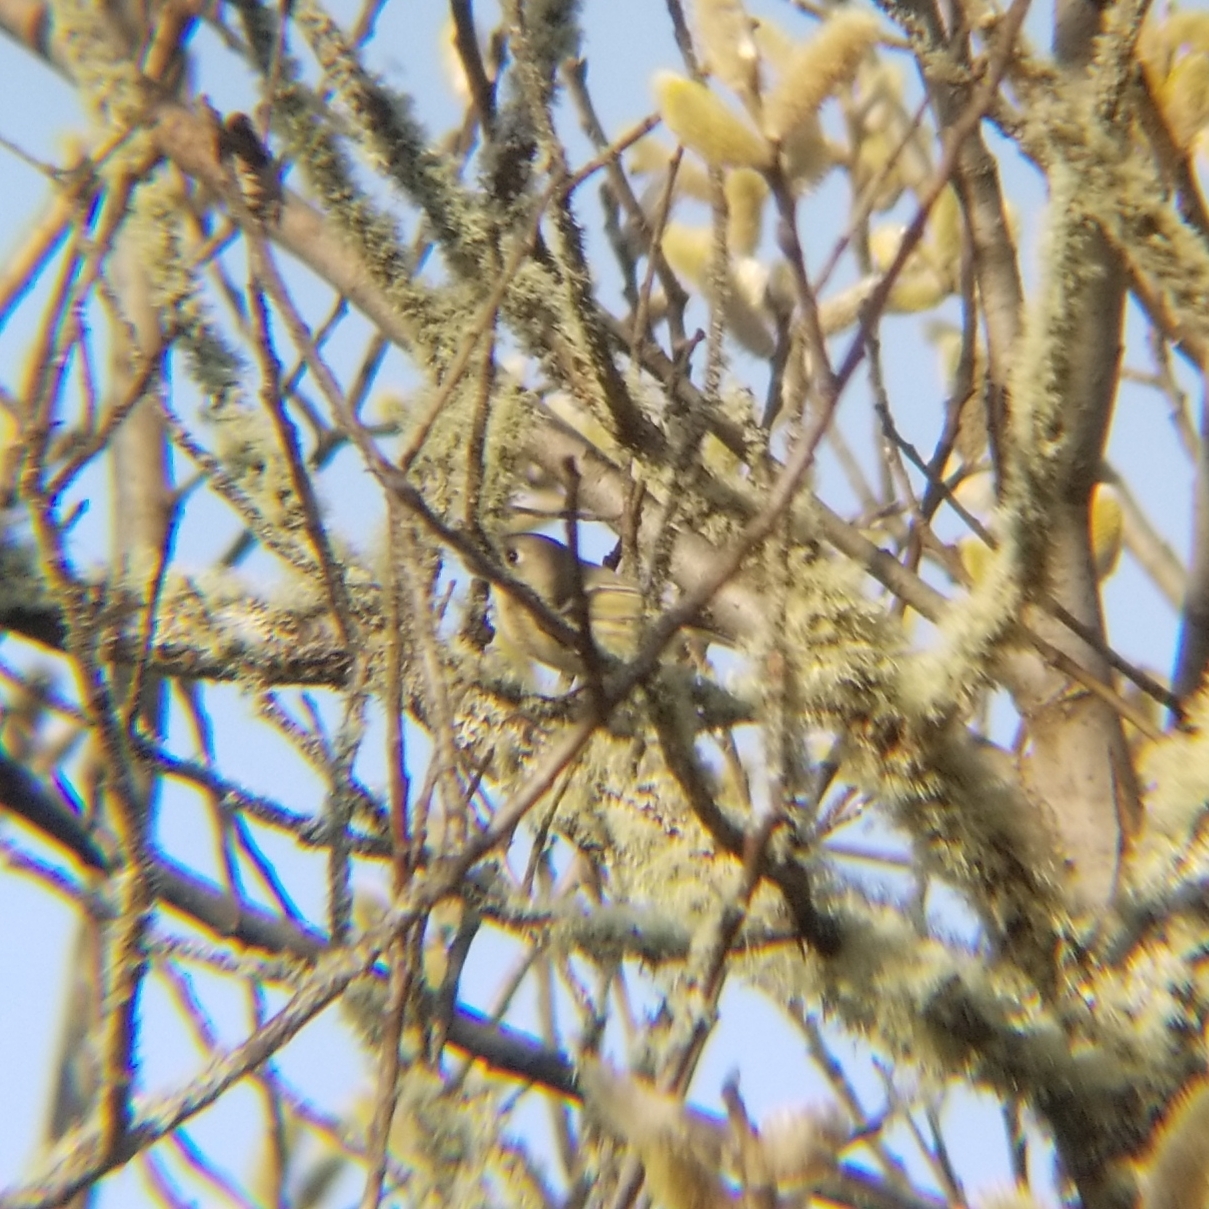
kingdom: Animalia
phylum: Chordata
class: Aves
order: Passeriformes
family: Regulidae
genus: Regulus
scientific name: Regulus calendula
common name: Ruby-crowned kinglet
